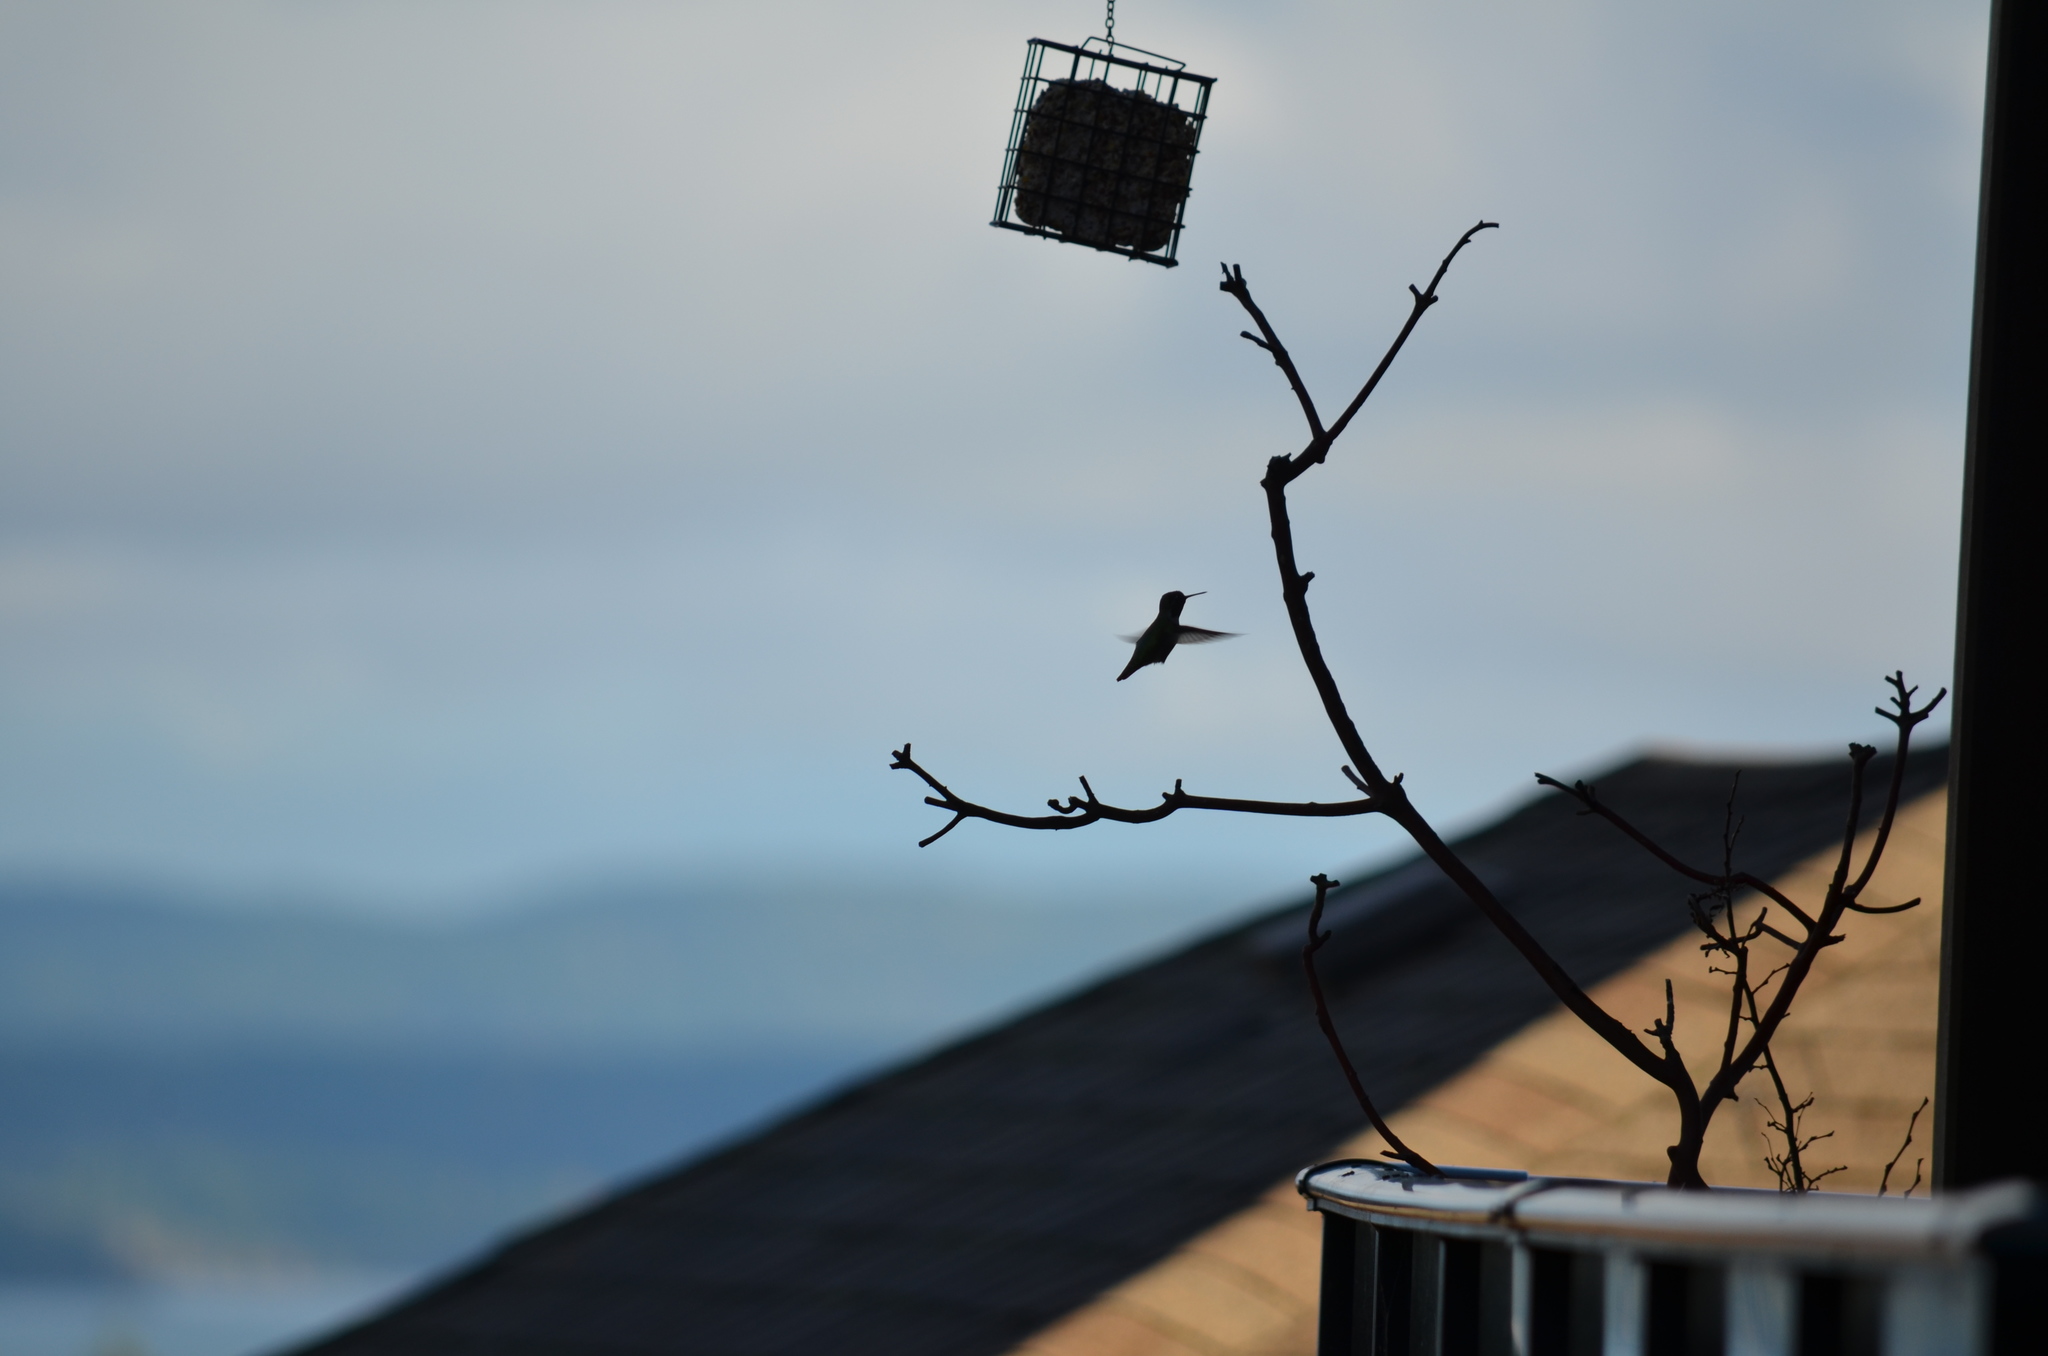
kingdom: Animalia
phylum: Chordata
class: Aves
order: Apodiformes
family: Trochilidae
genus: Calypte
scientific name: Calypte anna
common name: Anna's hummingbird
